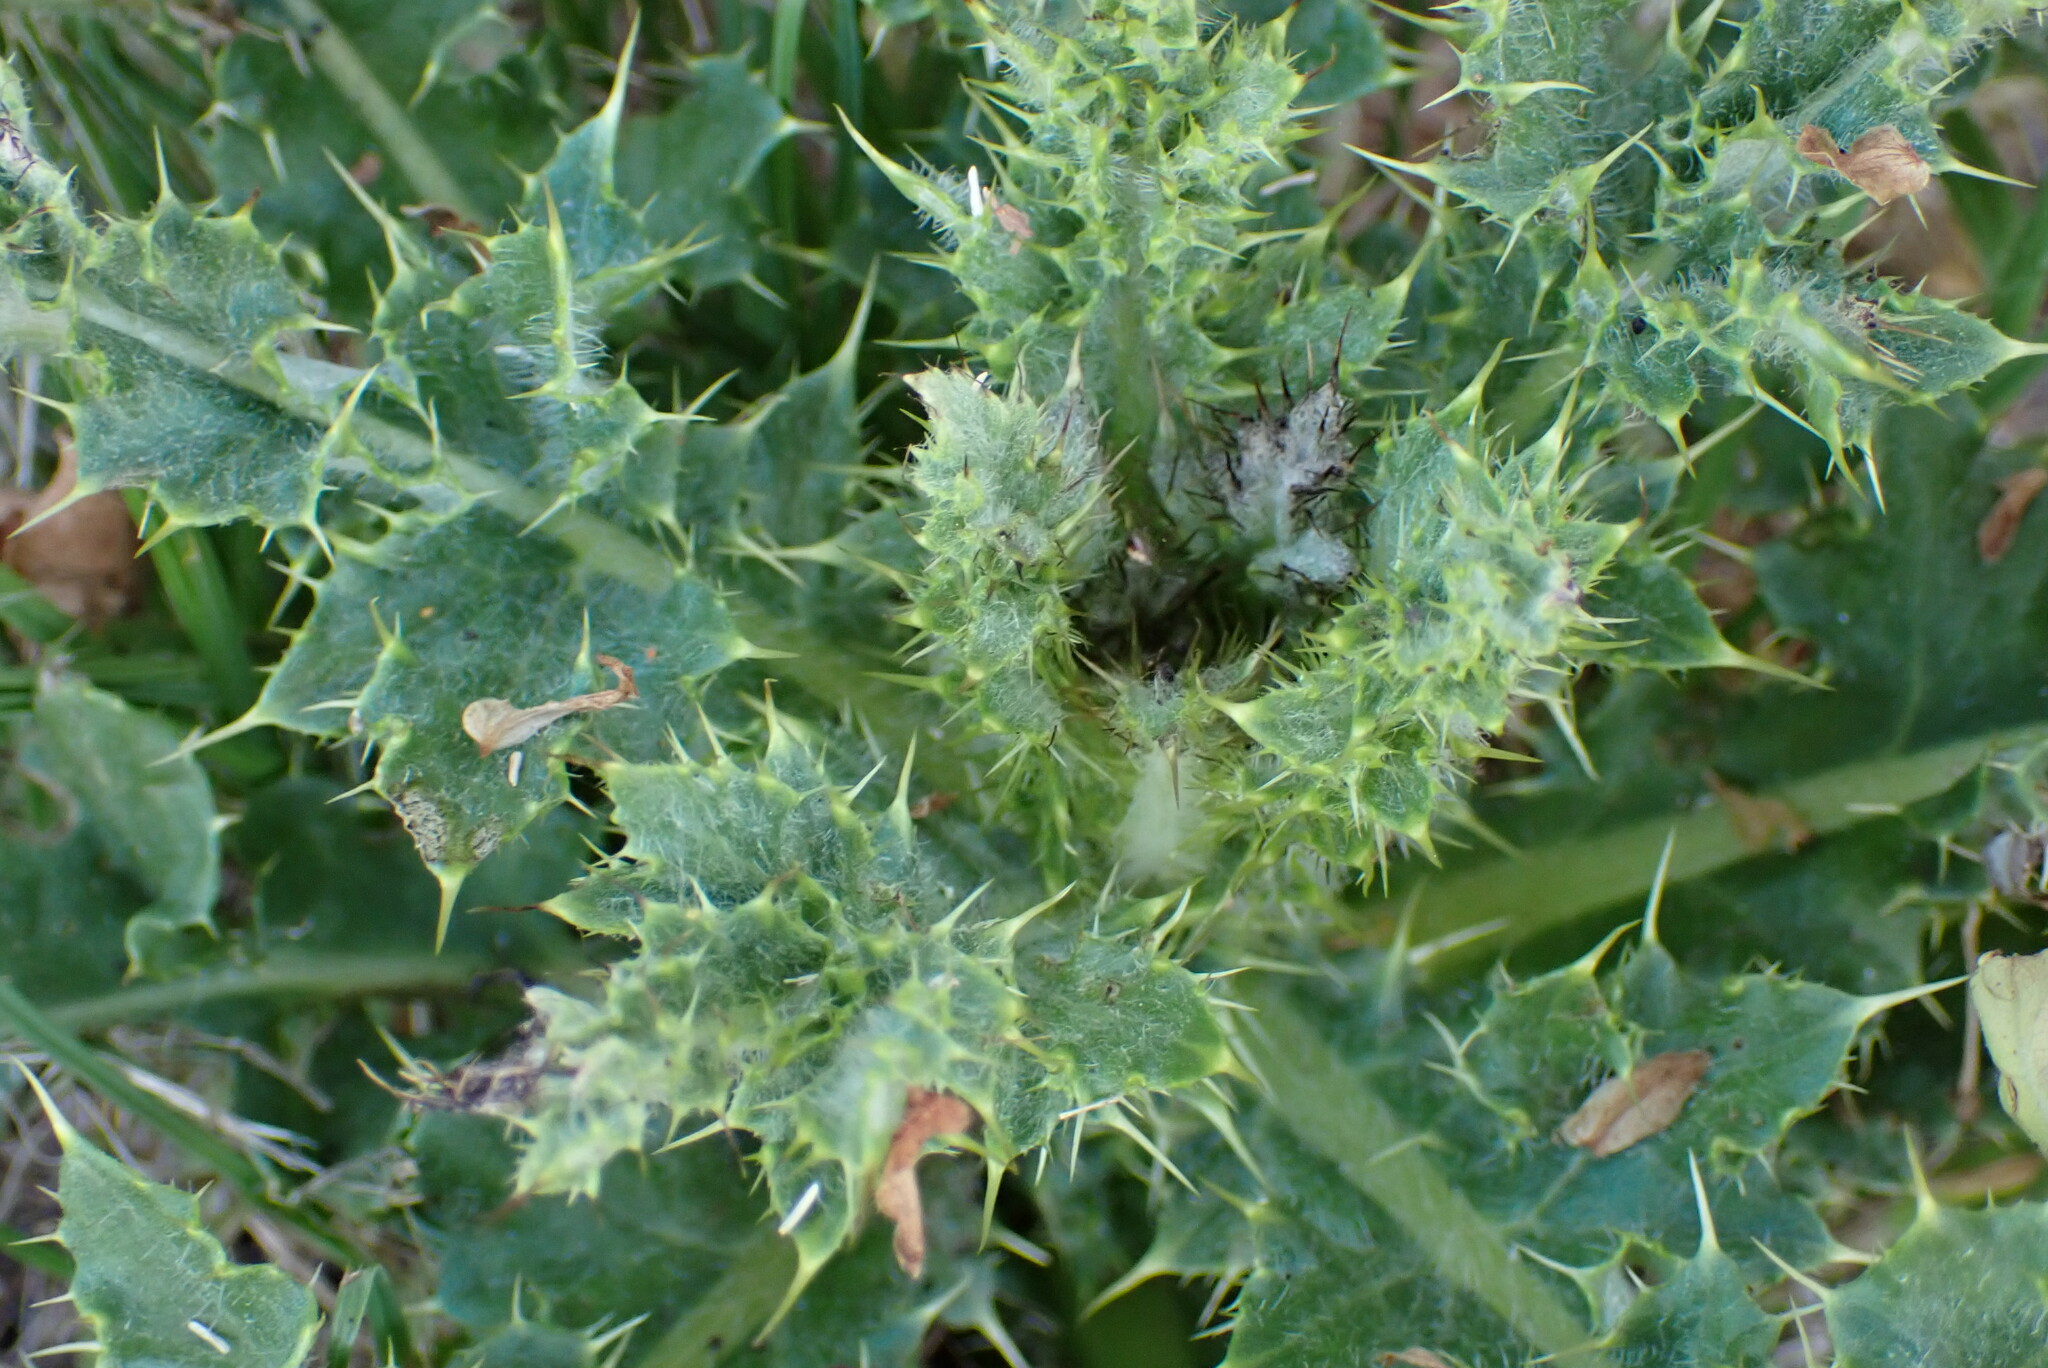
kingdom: Plantae
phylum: Tracheophyta
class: Magnoliopsida
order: Asterales
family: Asteraceae
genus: Cirsium
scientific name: Cirsium arvense
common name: Creeping thistle
